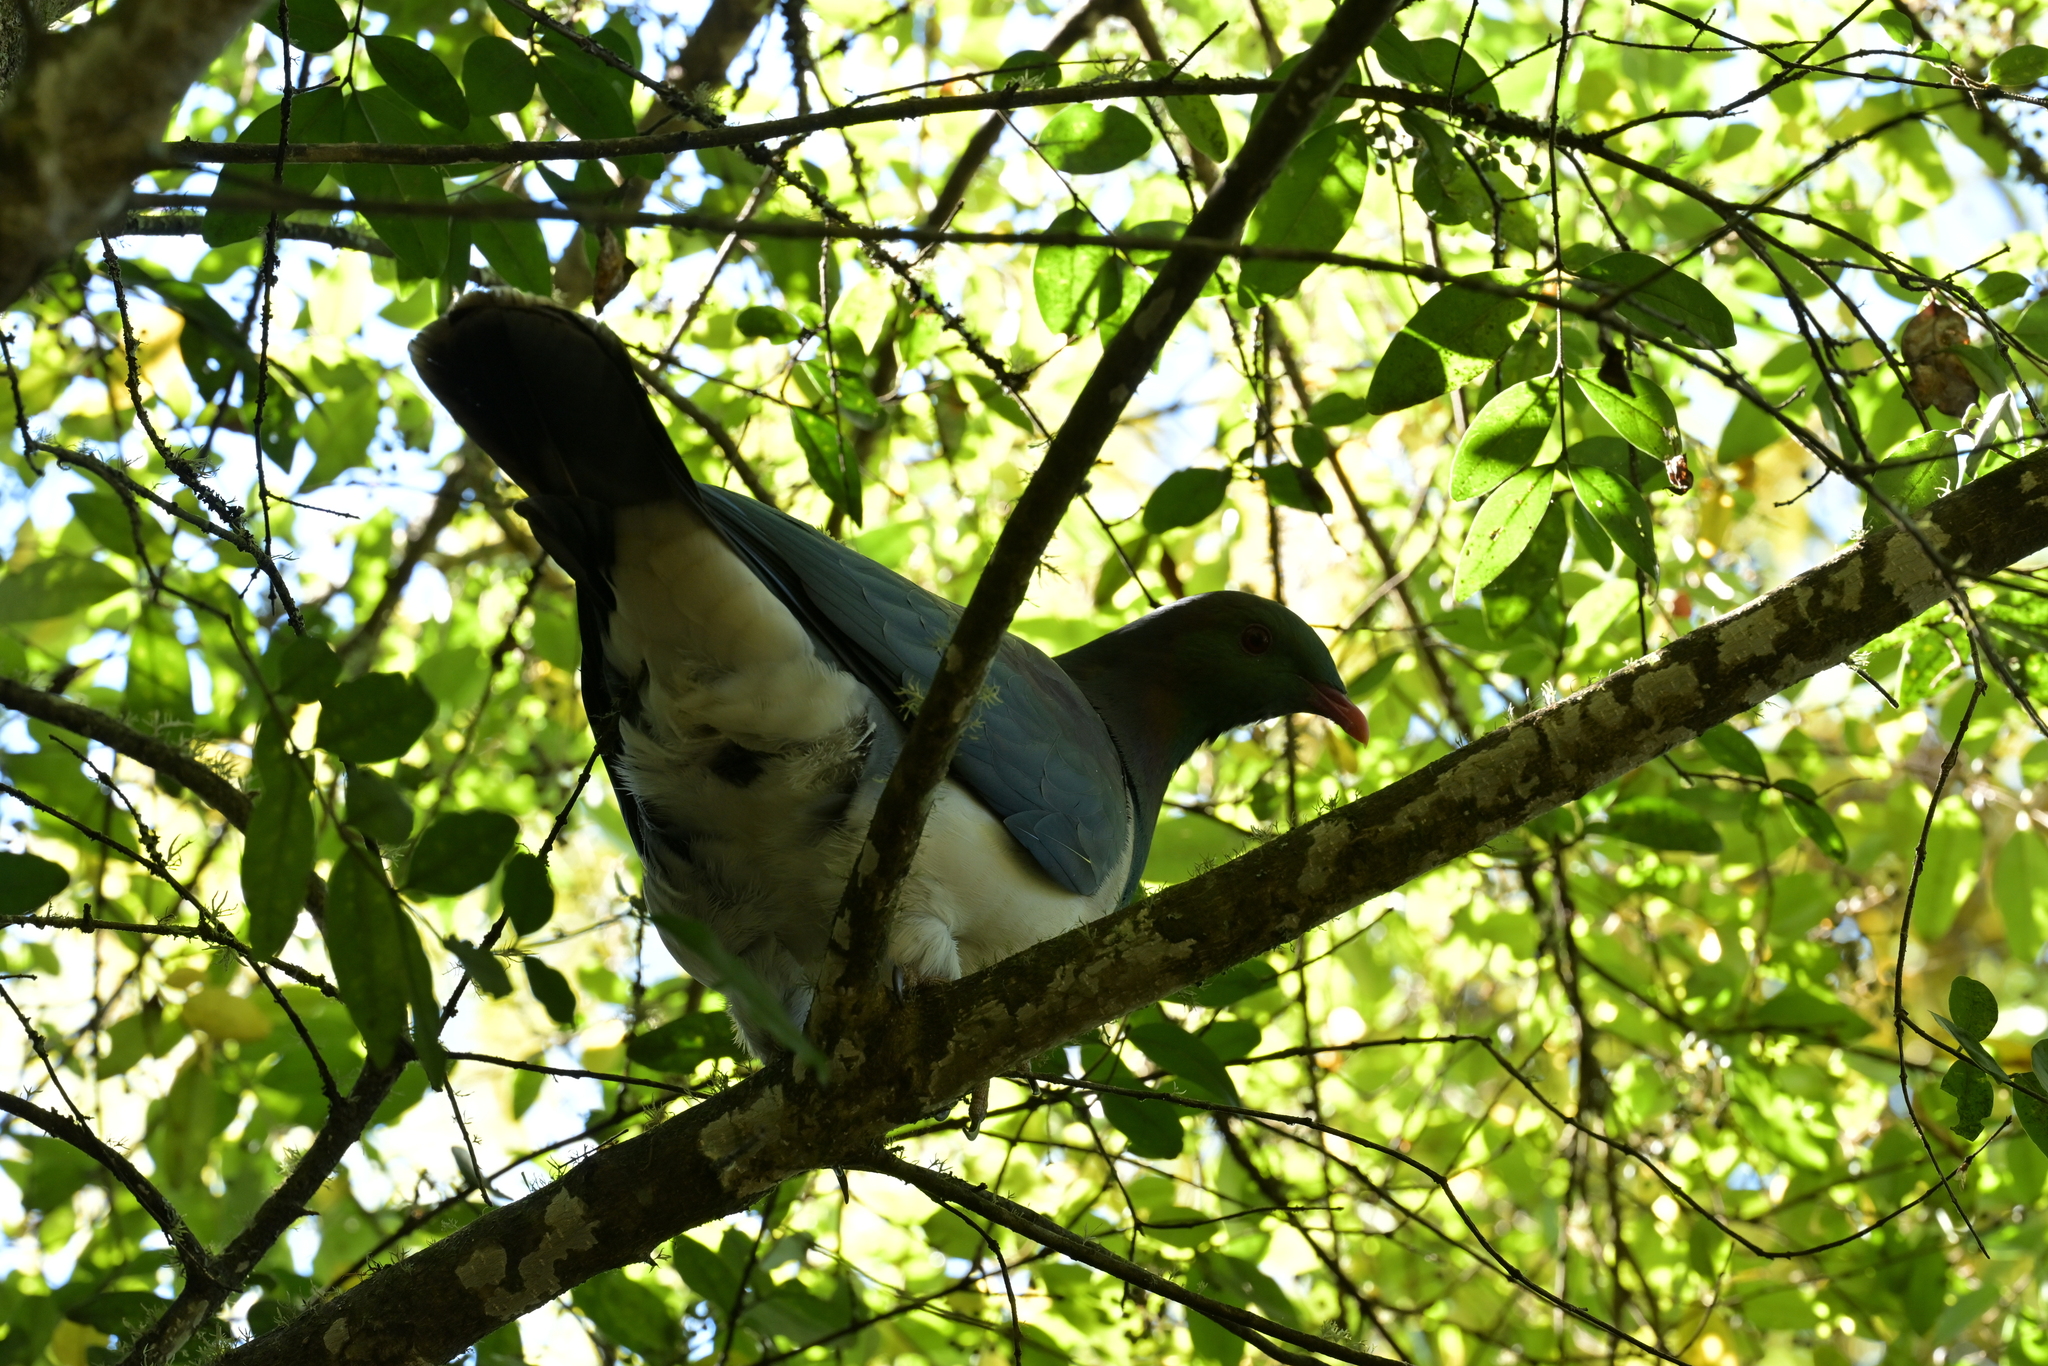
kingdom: Animalia
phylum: Chordata
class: Aves
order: Columbiformes
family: Columbidae
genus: Hemiphaga
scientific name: Hemiphaga novaeseelandiae
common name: New zealand pigeon
